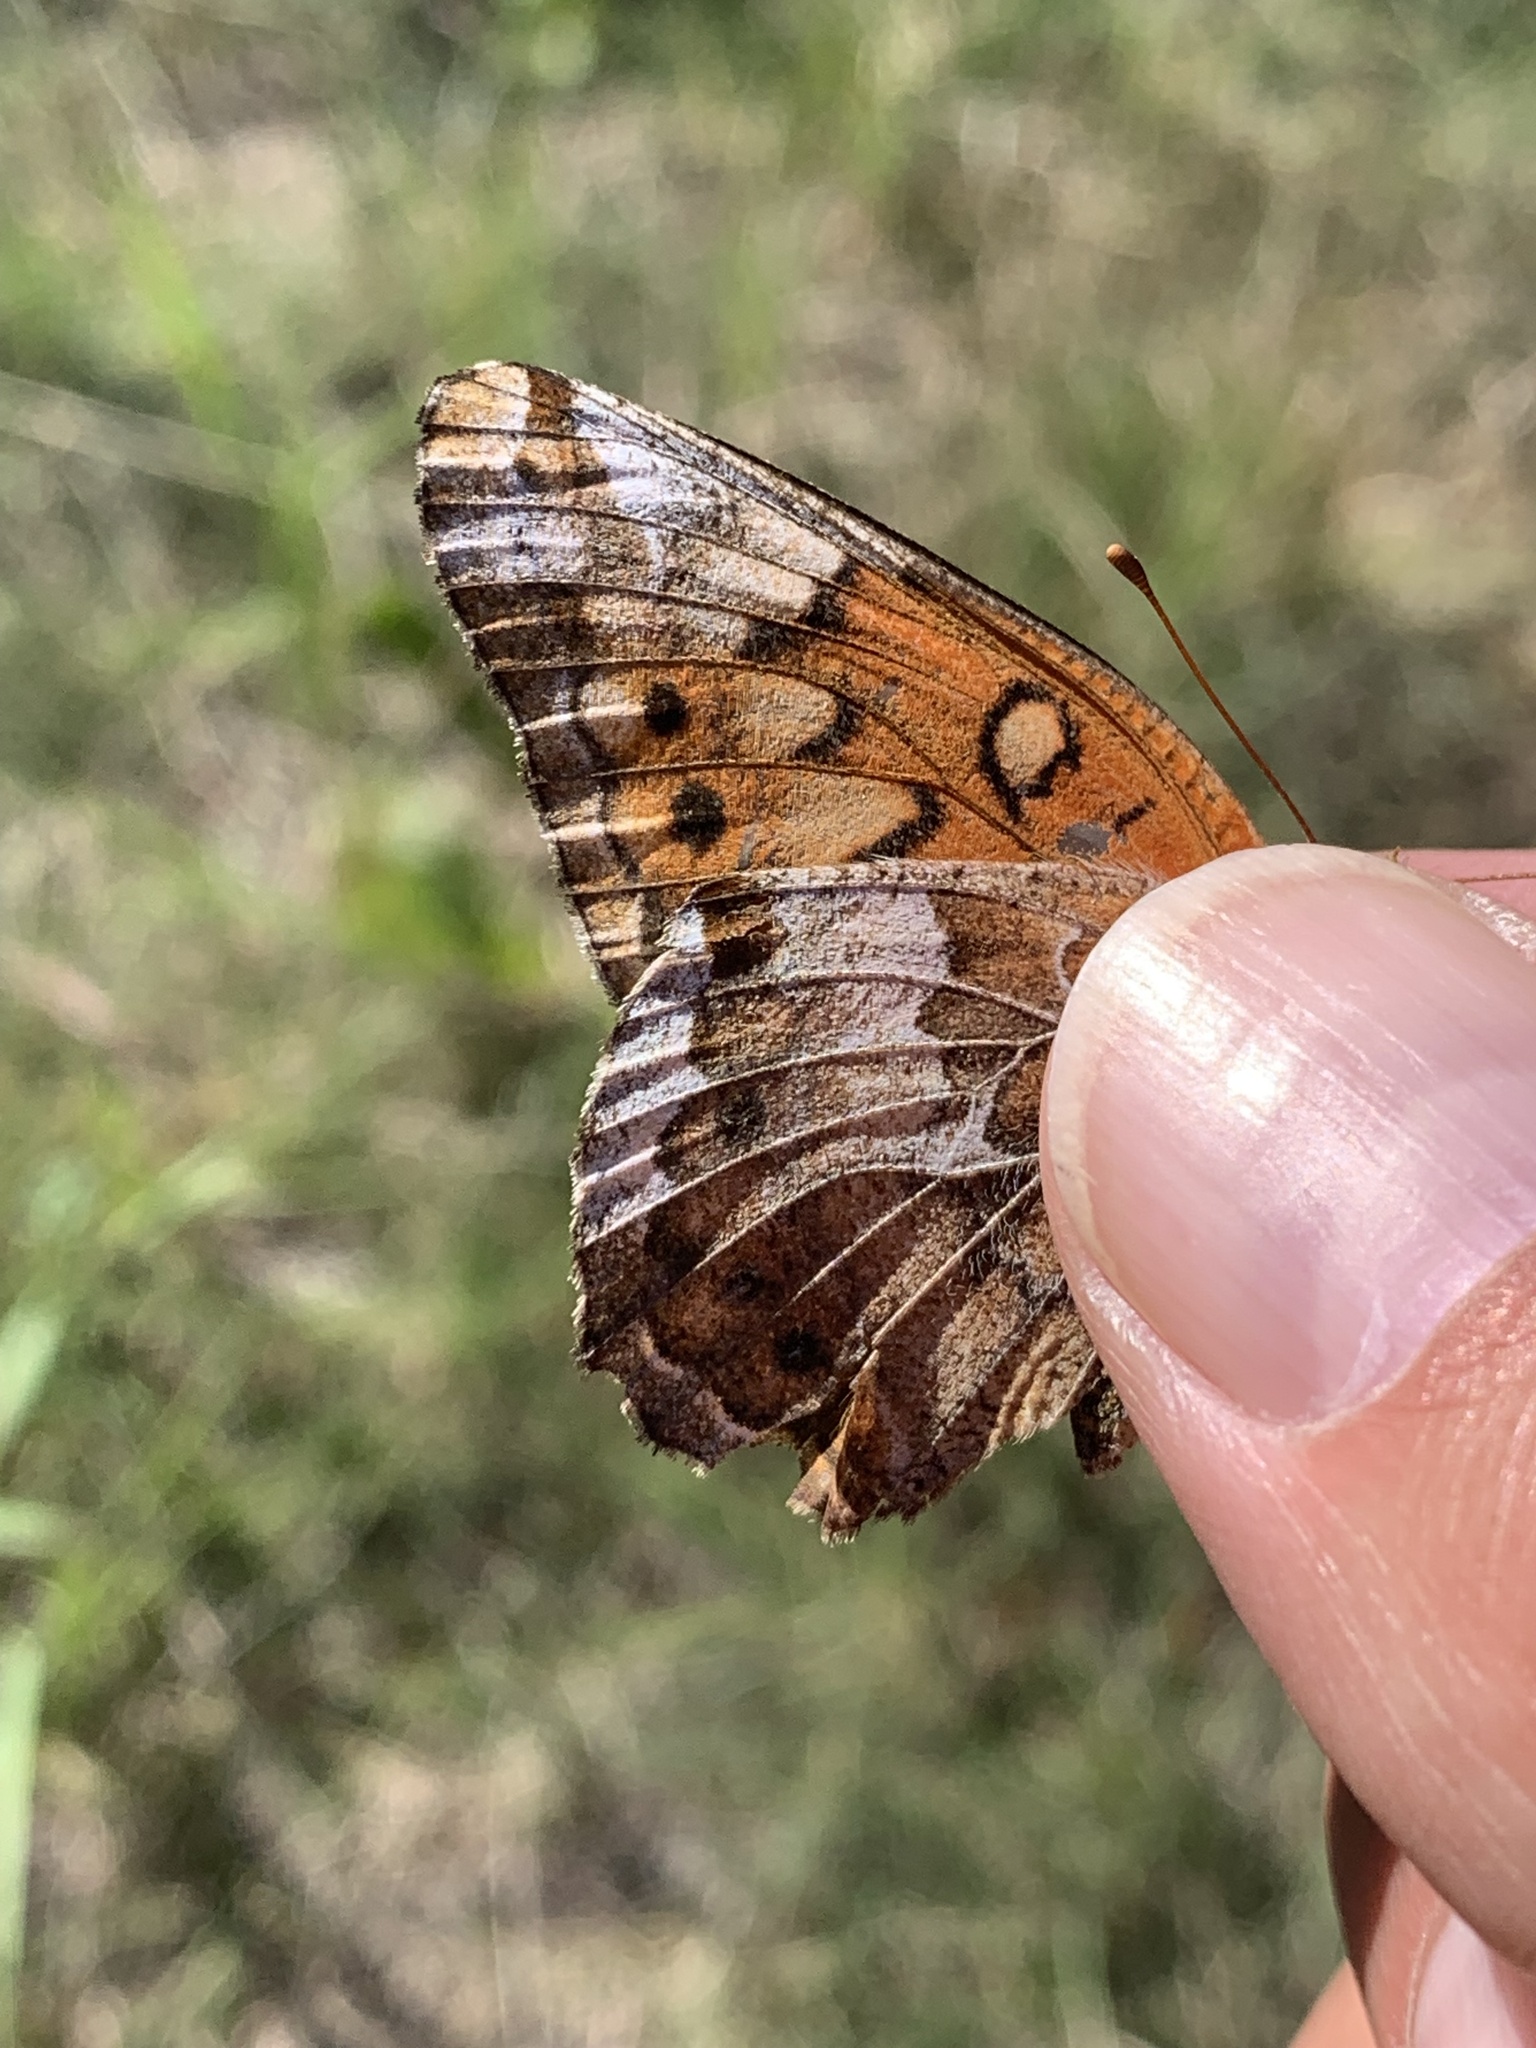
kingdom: Animalia
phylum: Arthropoda
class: Insecta
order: Lepidoptera
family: Nymphalidae
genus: Euptoieta
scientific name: Euptoieta claudia
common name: Variegated fritillary
